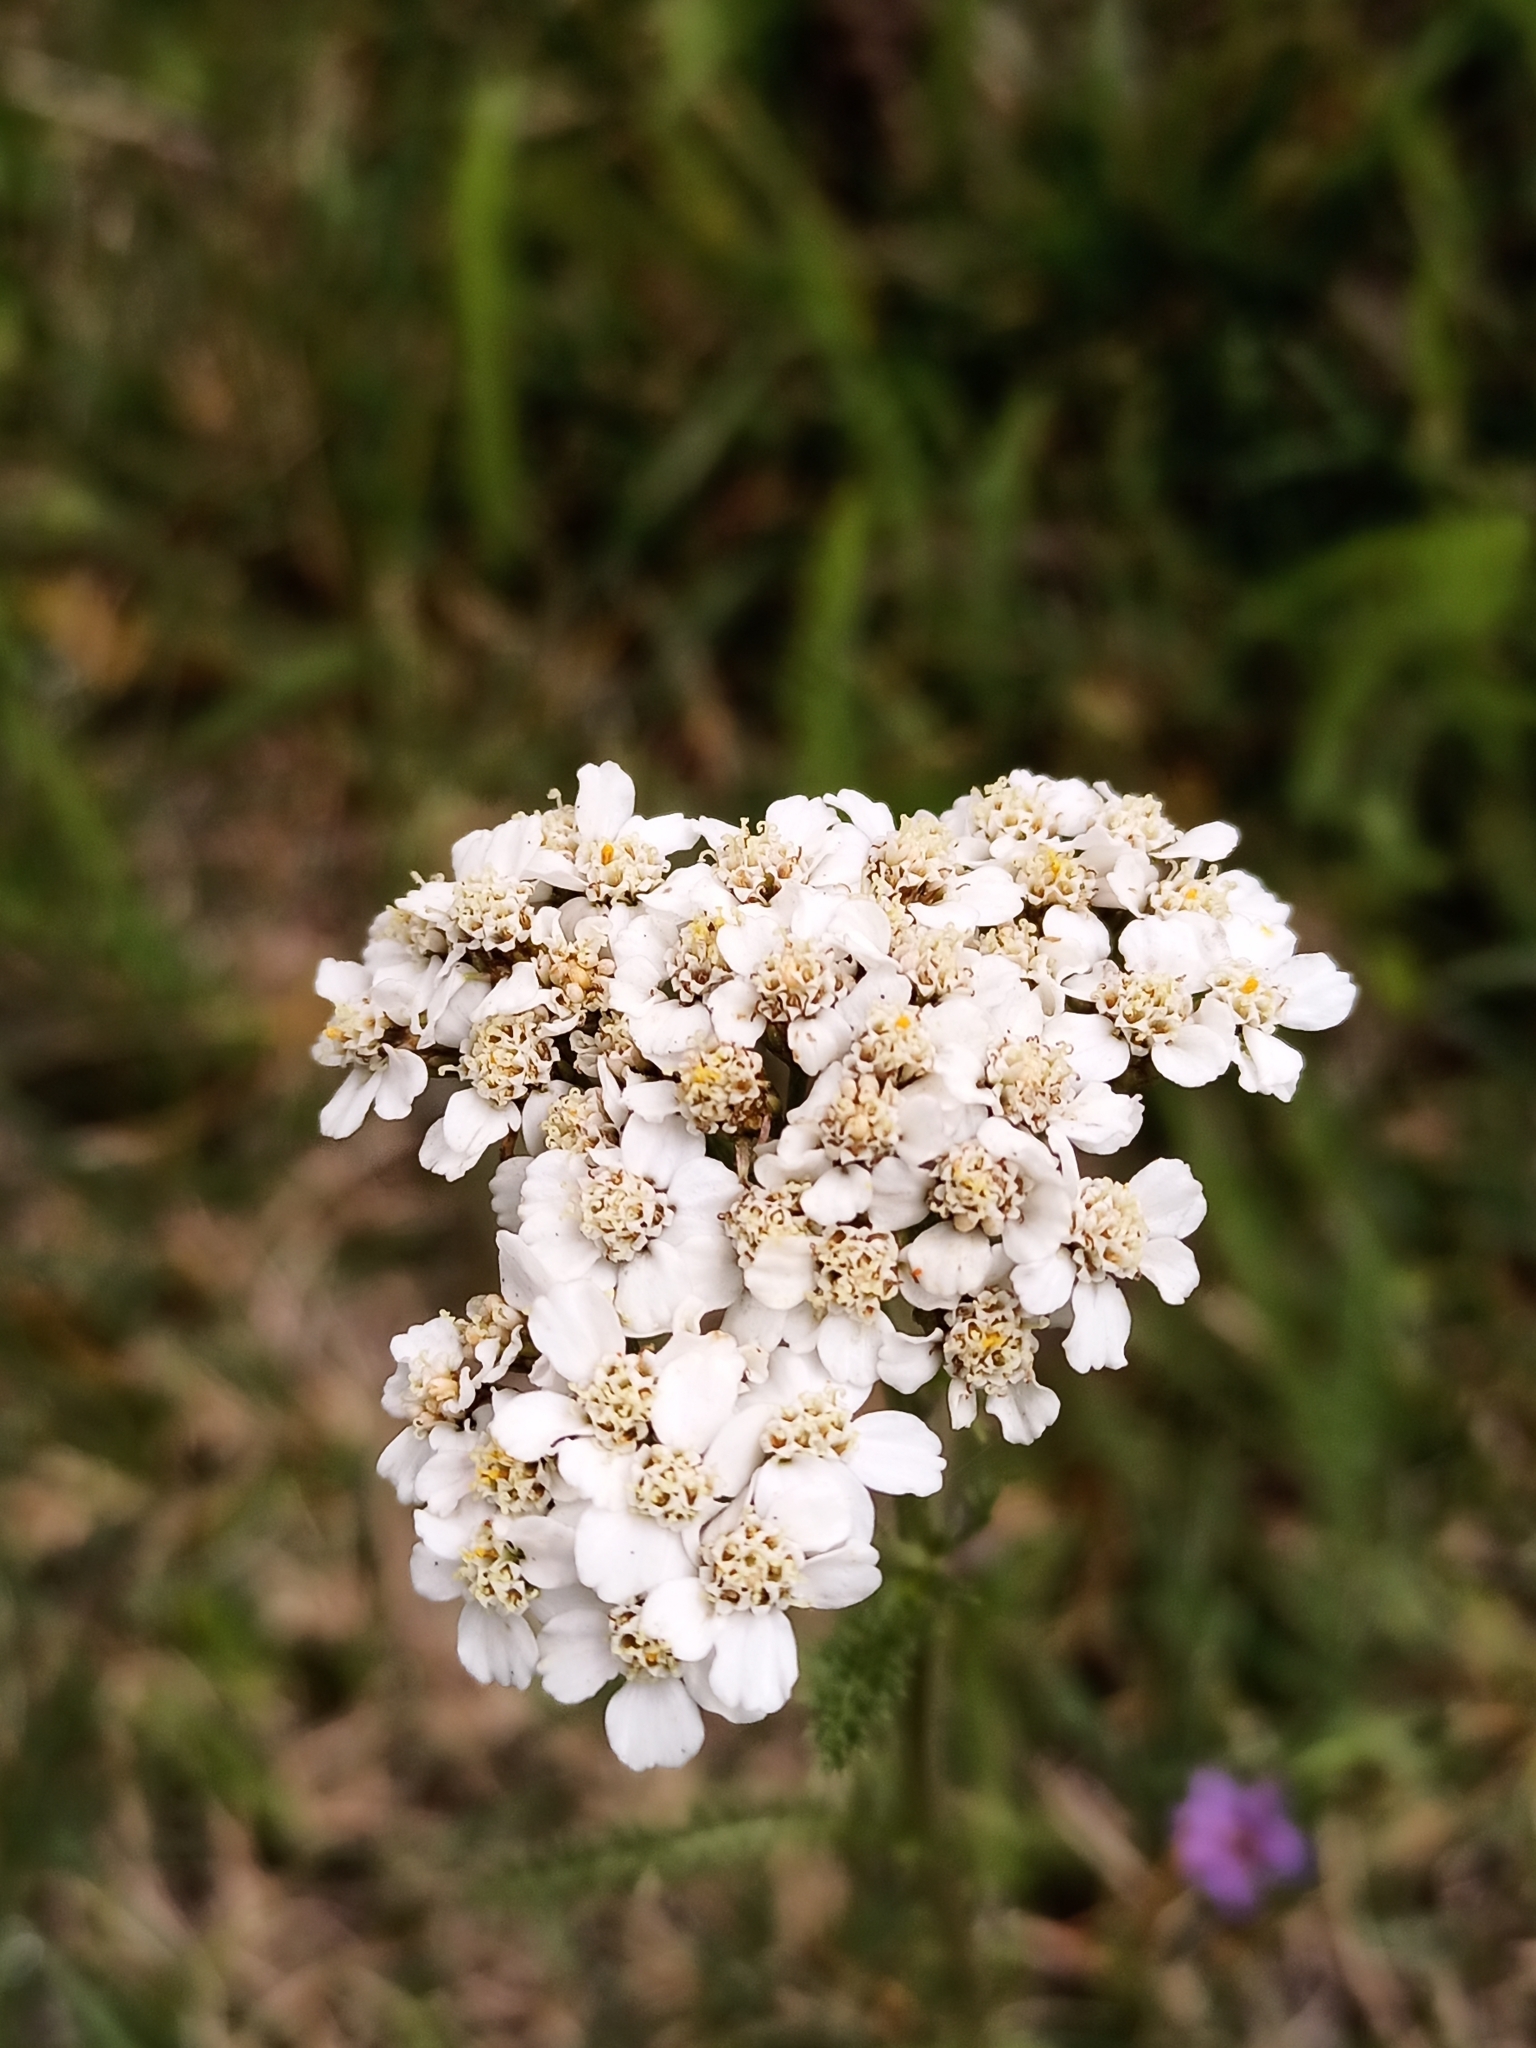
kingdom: Plantae
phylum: Tracheophyta
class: Magnoliopsida
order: Asterales
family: Asteraceae
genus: Achillea
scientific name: Achillea millefolium
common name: Yarrow
